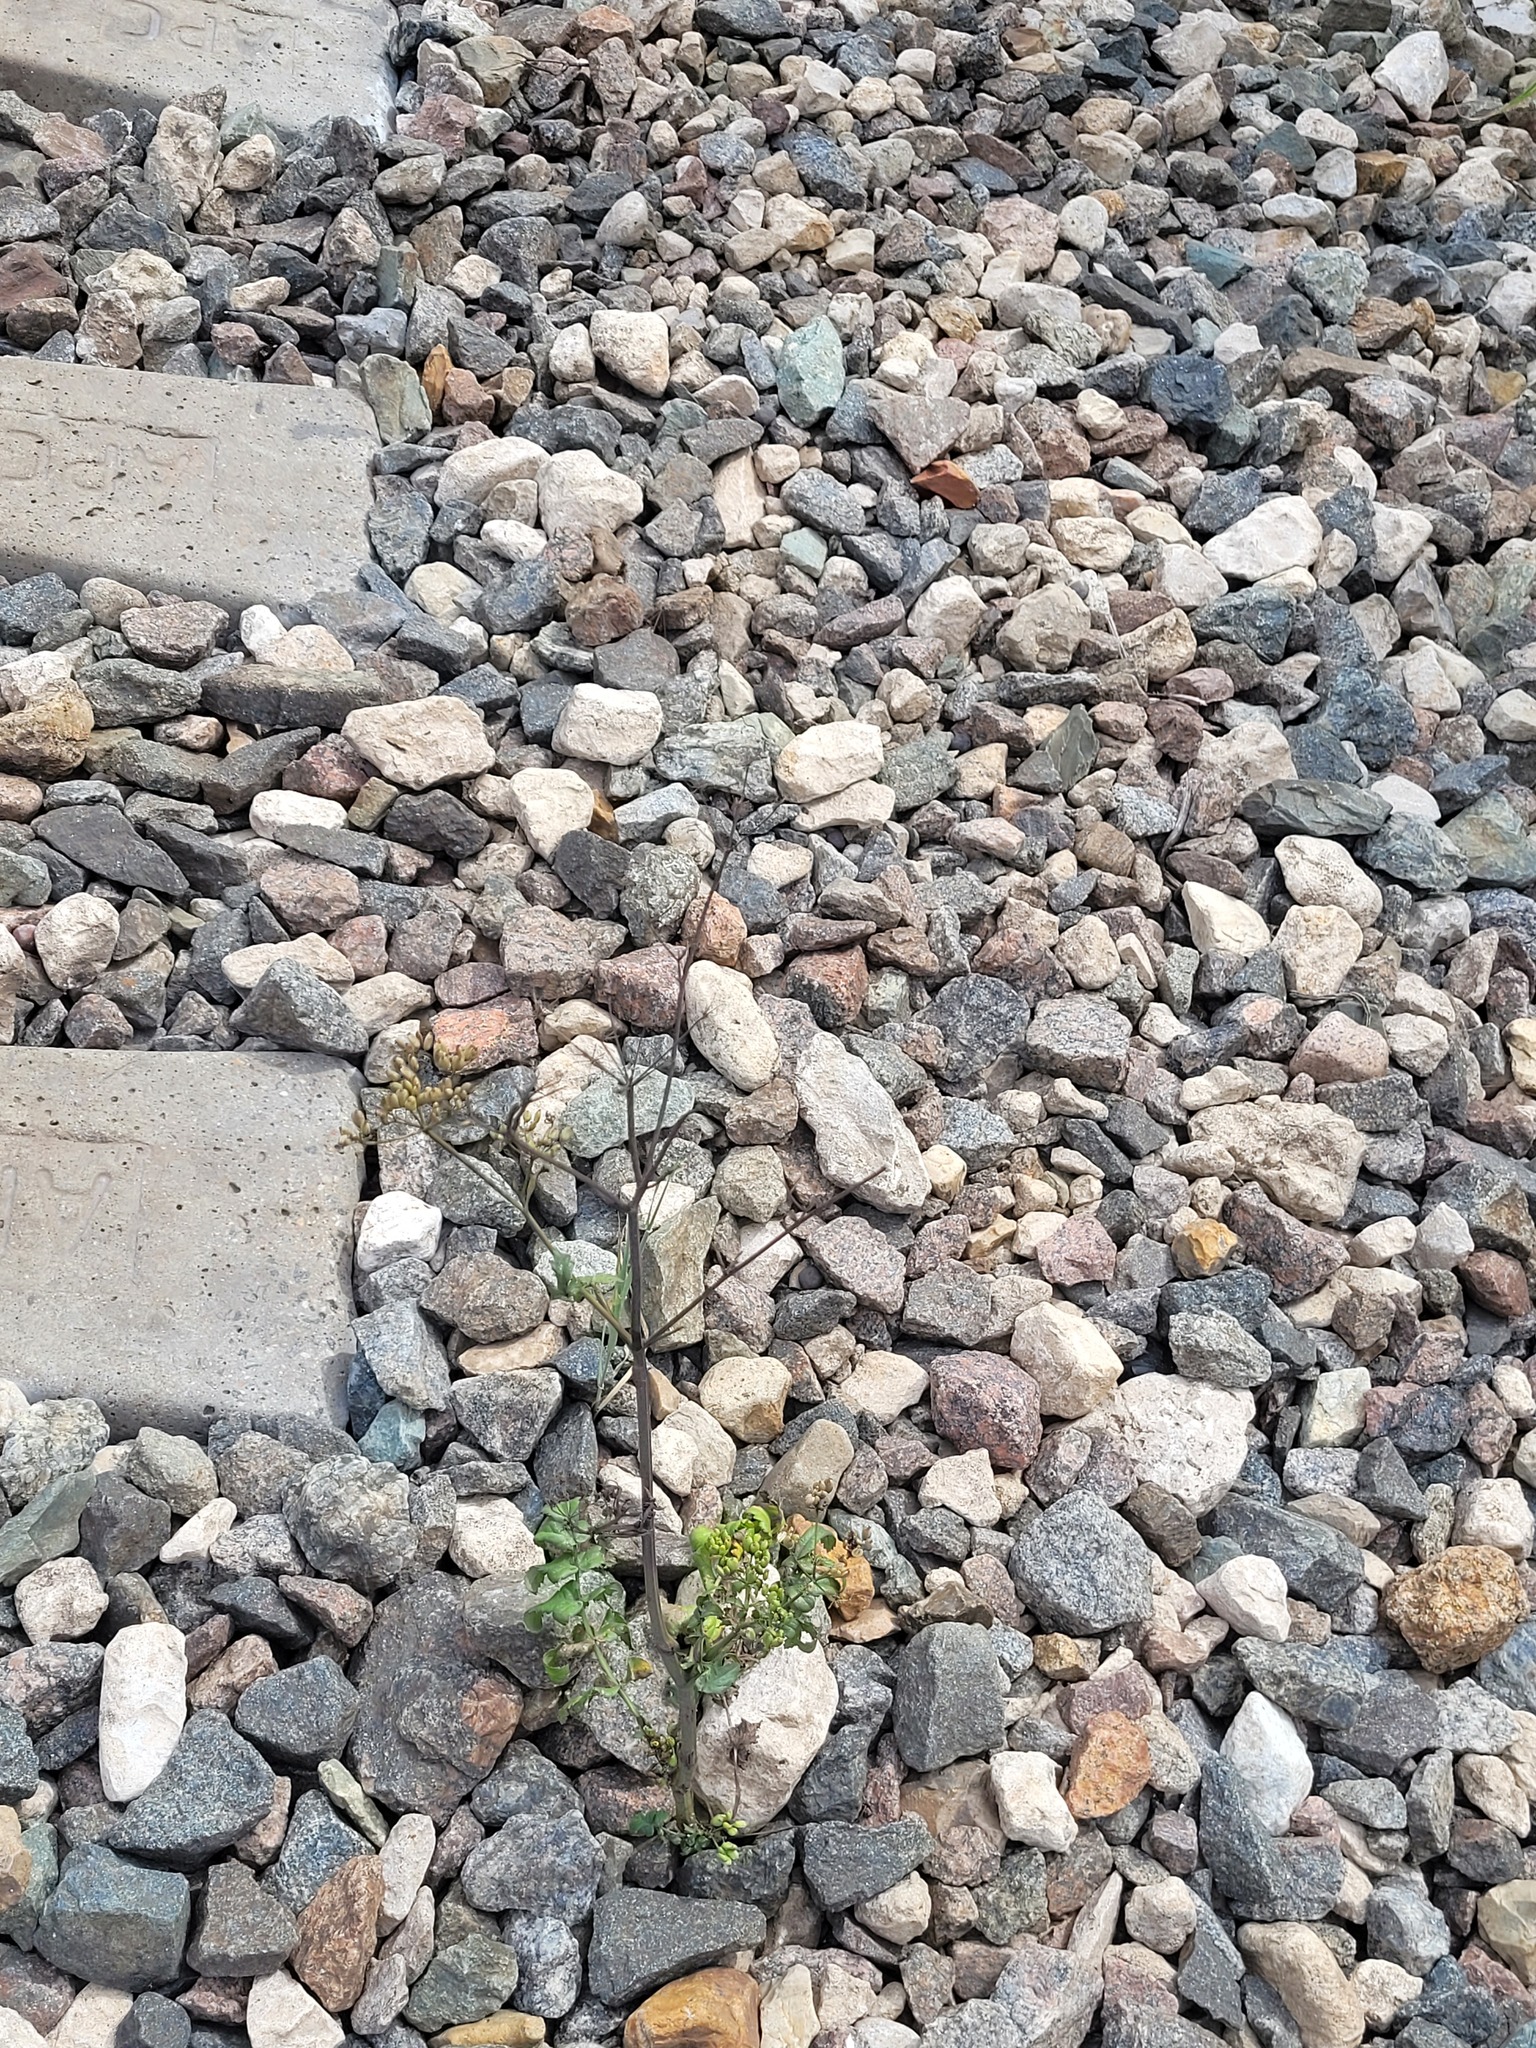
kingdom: Plantae
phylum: Tracheophyta
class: Magnoliopsida
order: Apiales
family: Apiaceae
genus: Pastinaca
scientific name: Pastinaca sativa
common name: Wild parsnip
